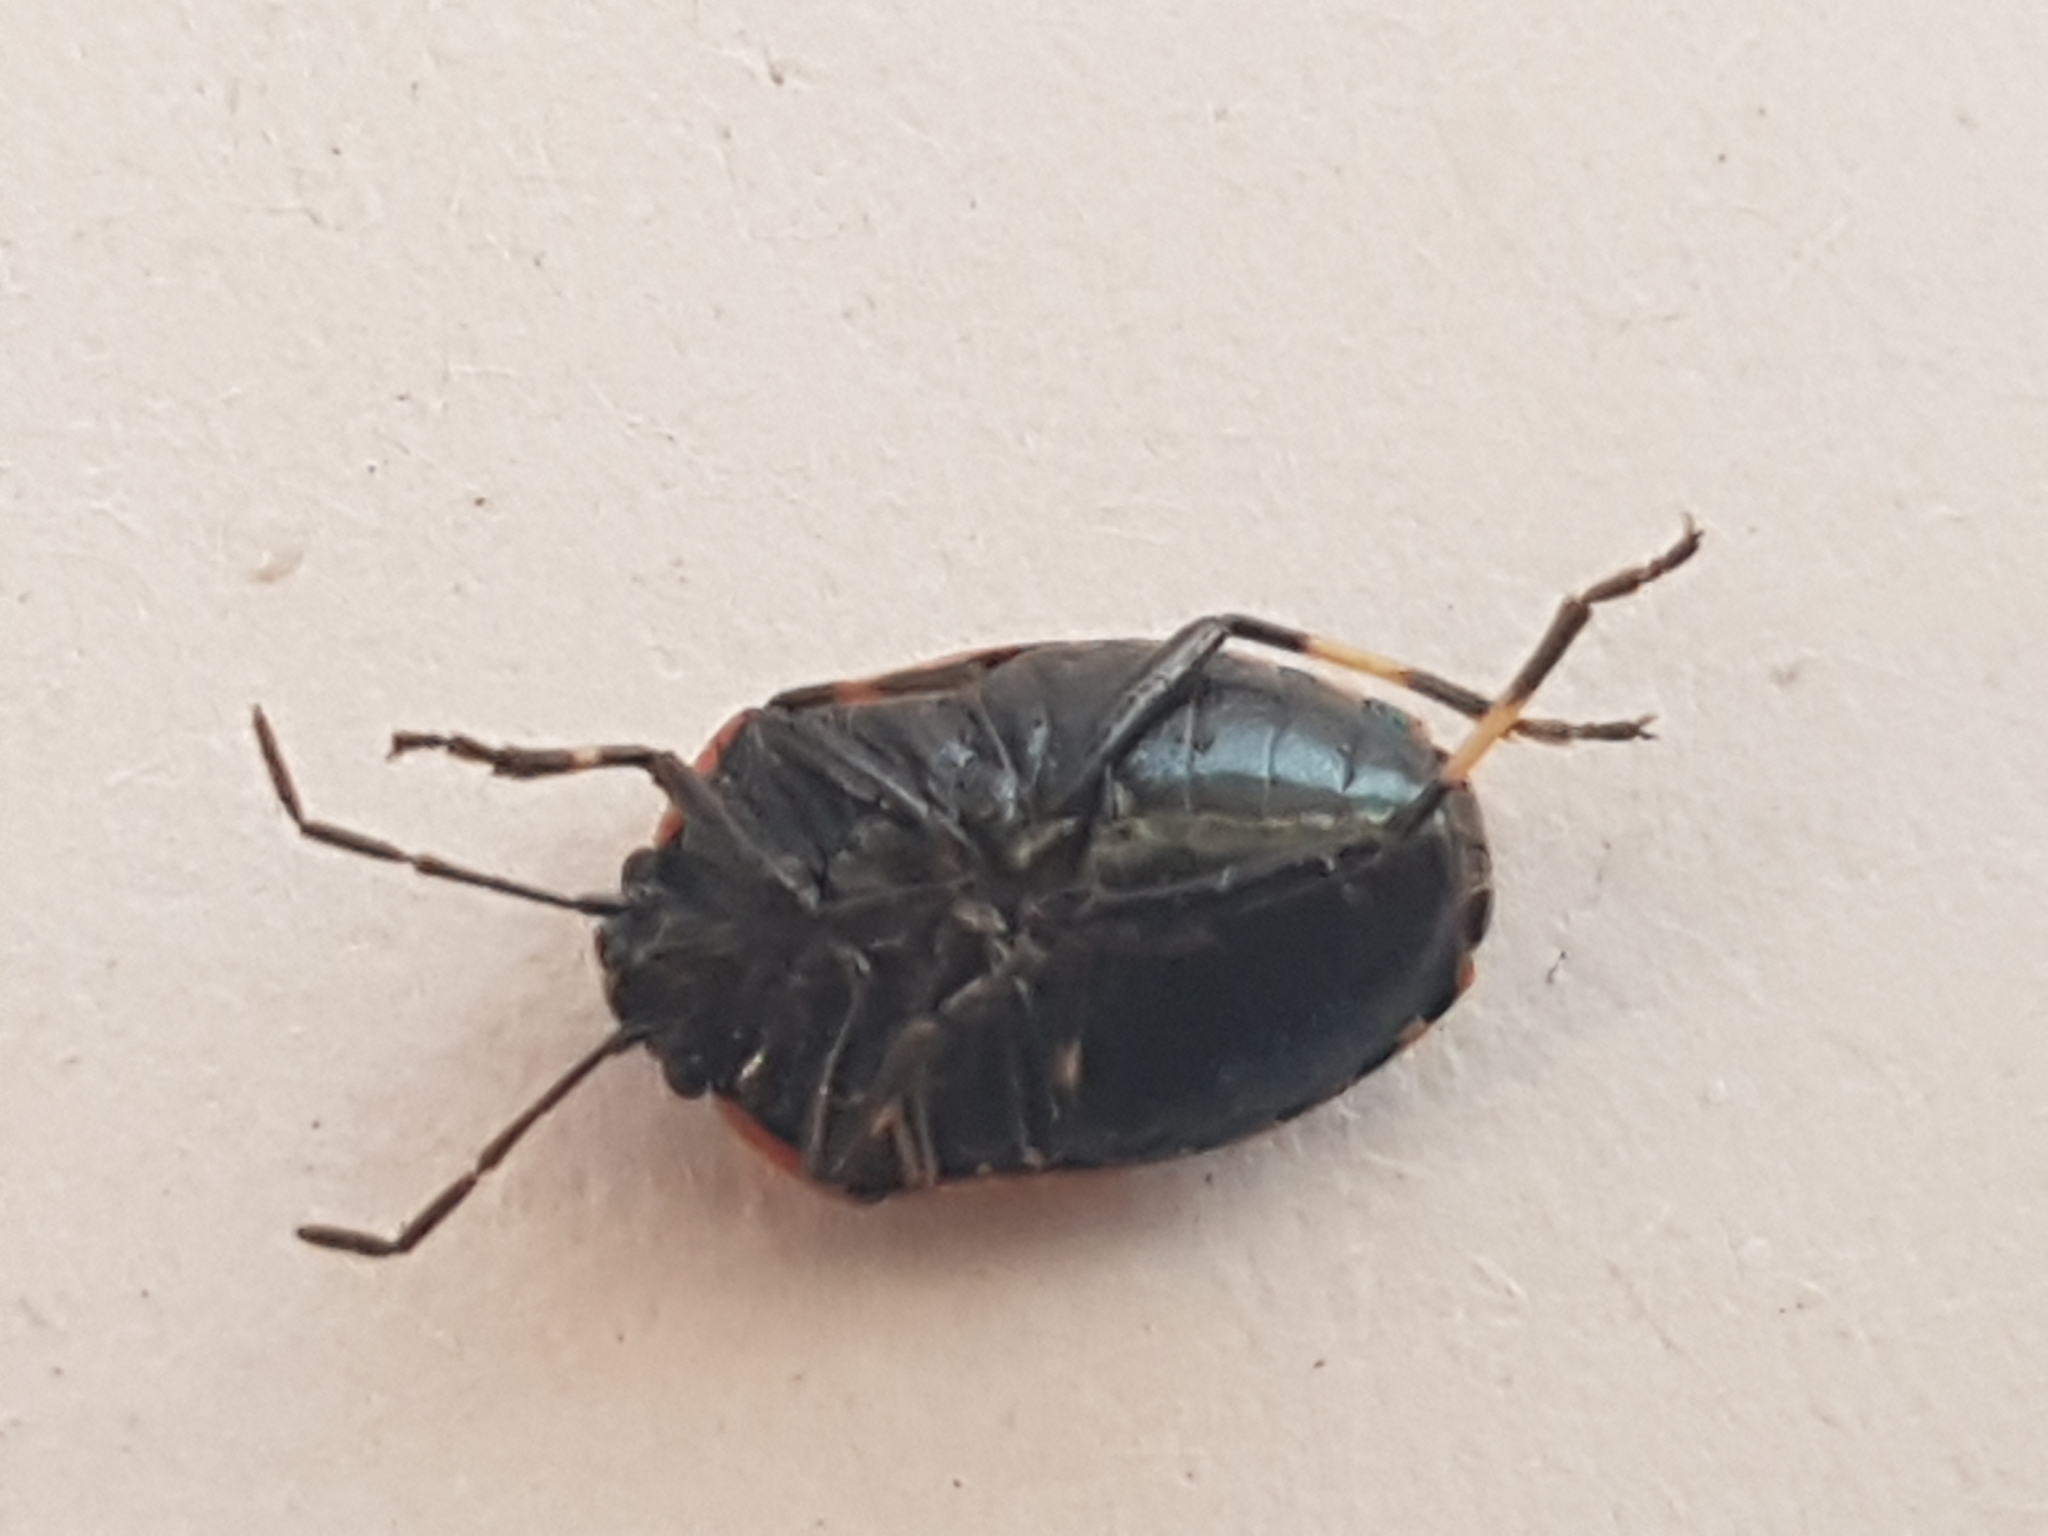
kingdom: Animalia
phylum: Arthropoda
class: Insecta
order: Hemiptera
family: Pentatomidae
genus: Eurydema
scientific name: Eurydema oleracea
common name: Cabbage bug
